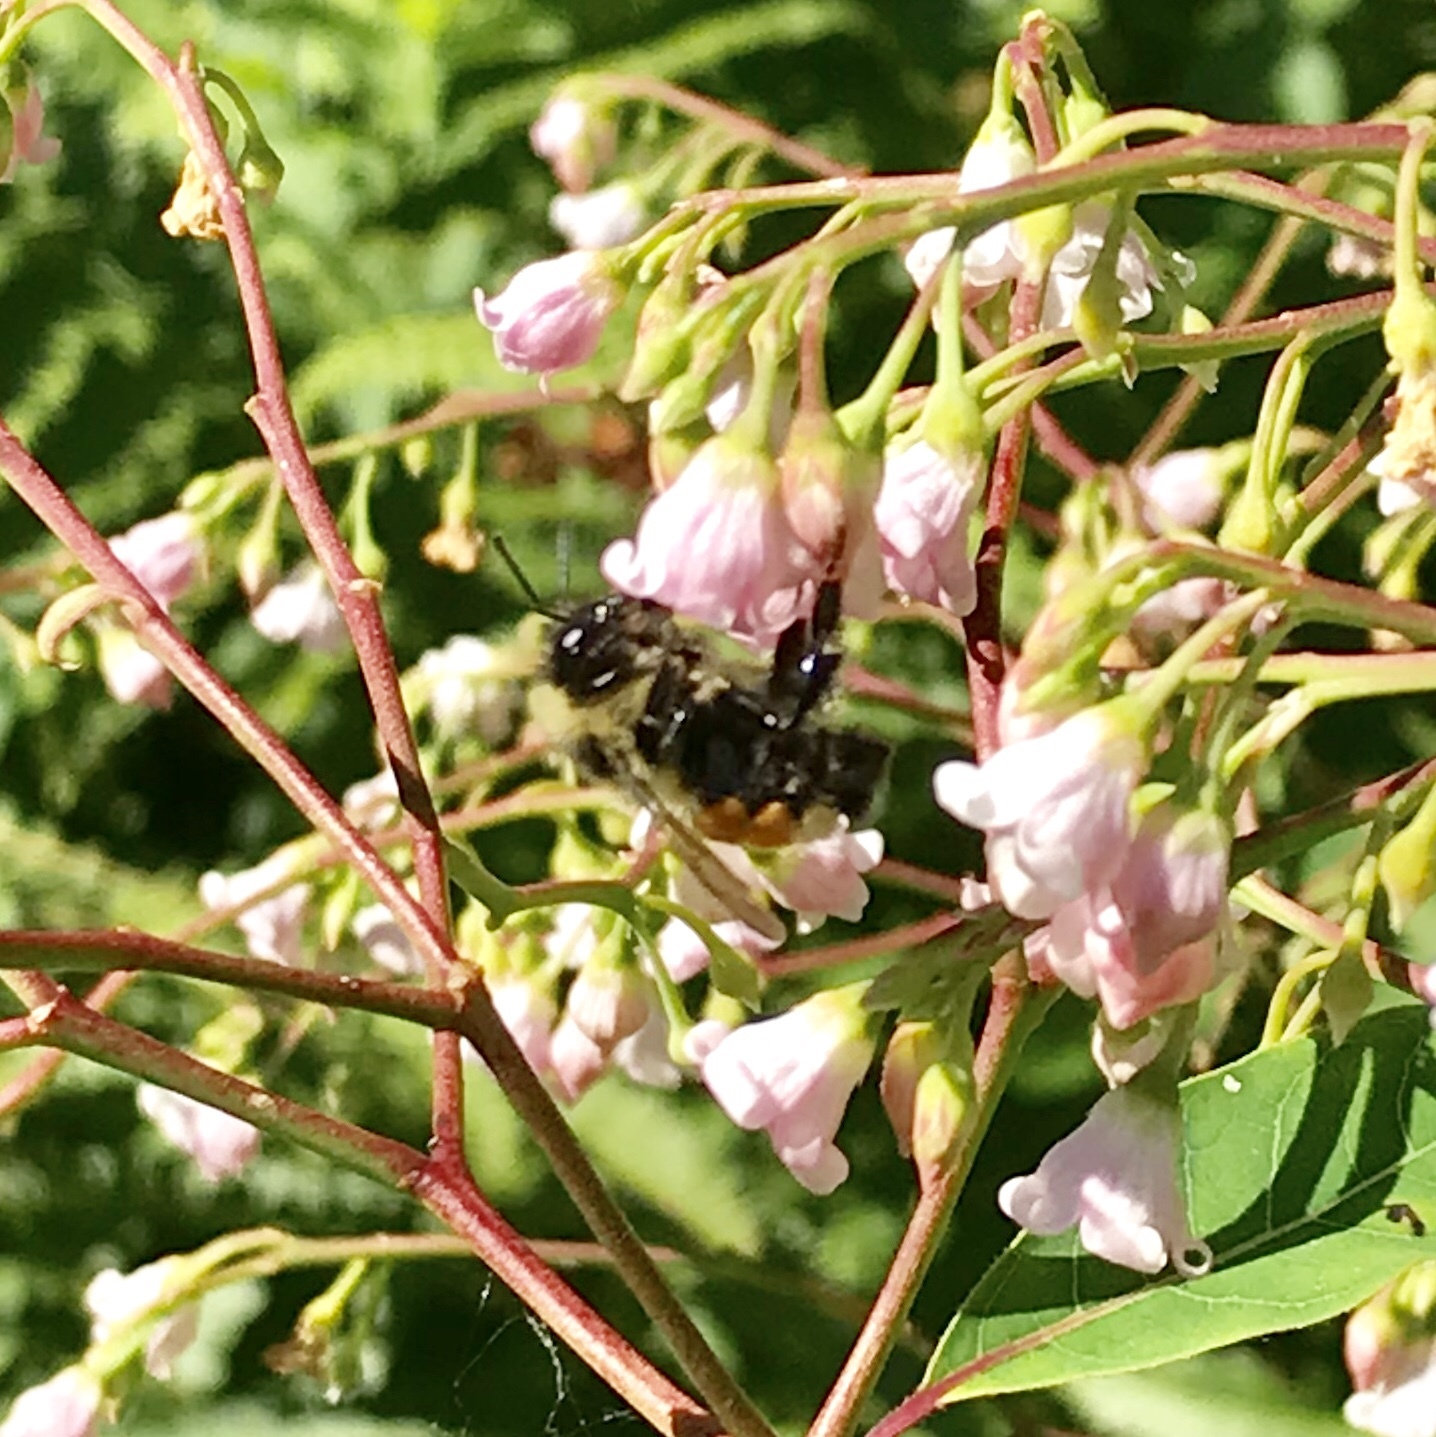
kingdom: Animalia
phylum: Arthropoda
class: Insecta
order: Hymenoptera
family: Apidae
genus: Bombus
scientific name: Bombus ternarius
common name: Tri-colored bumble bee
